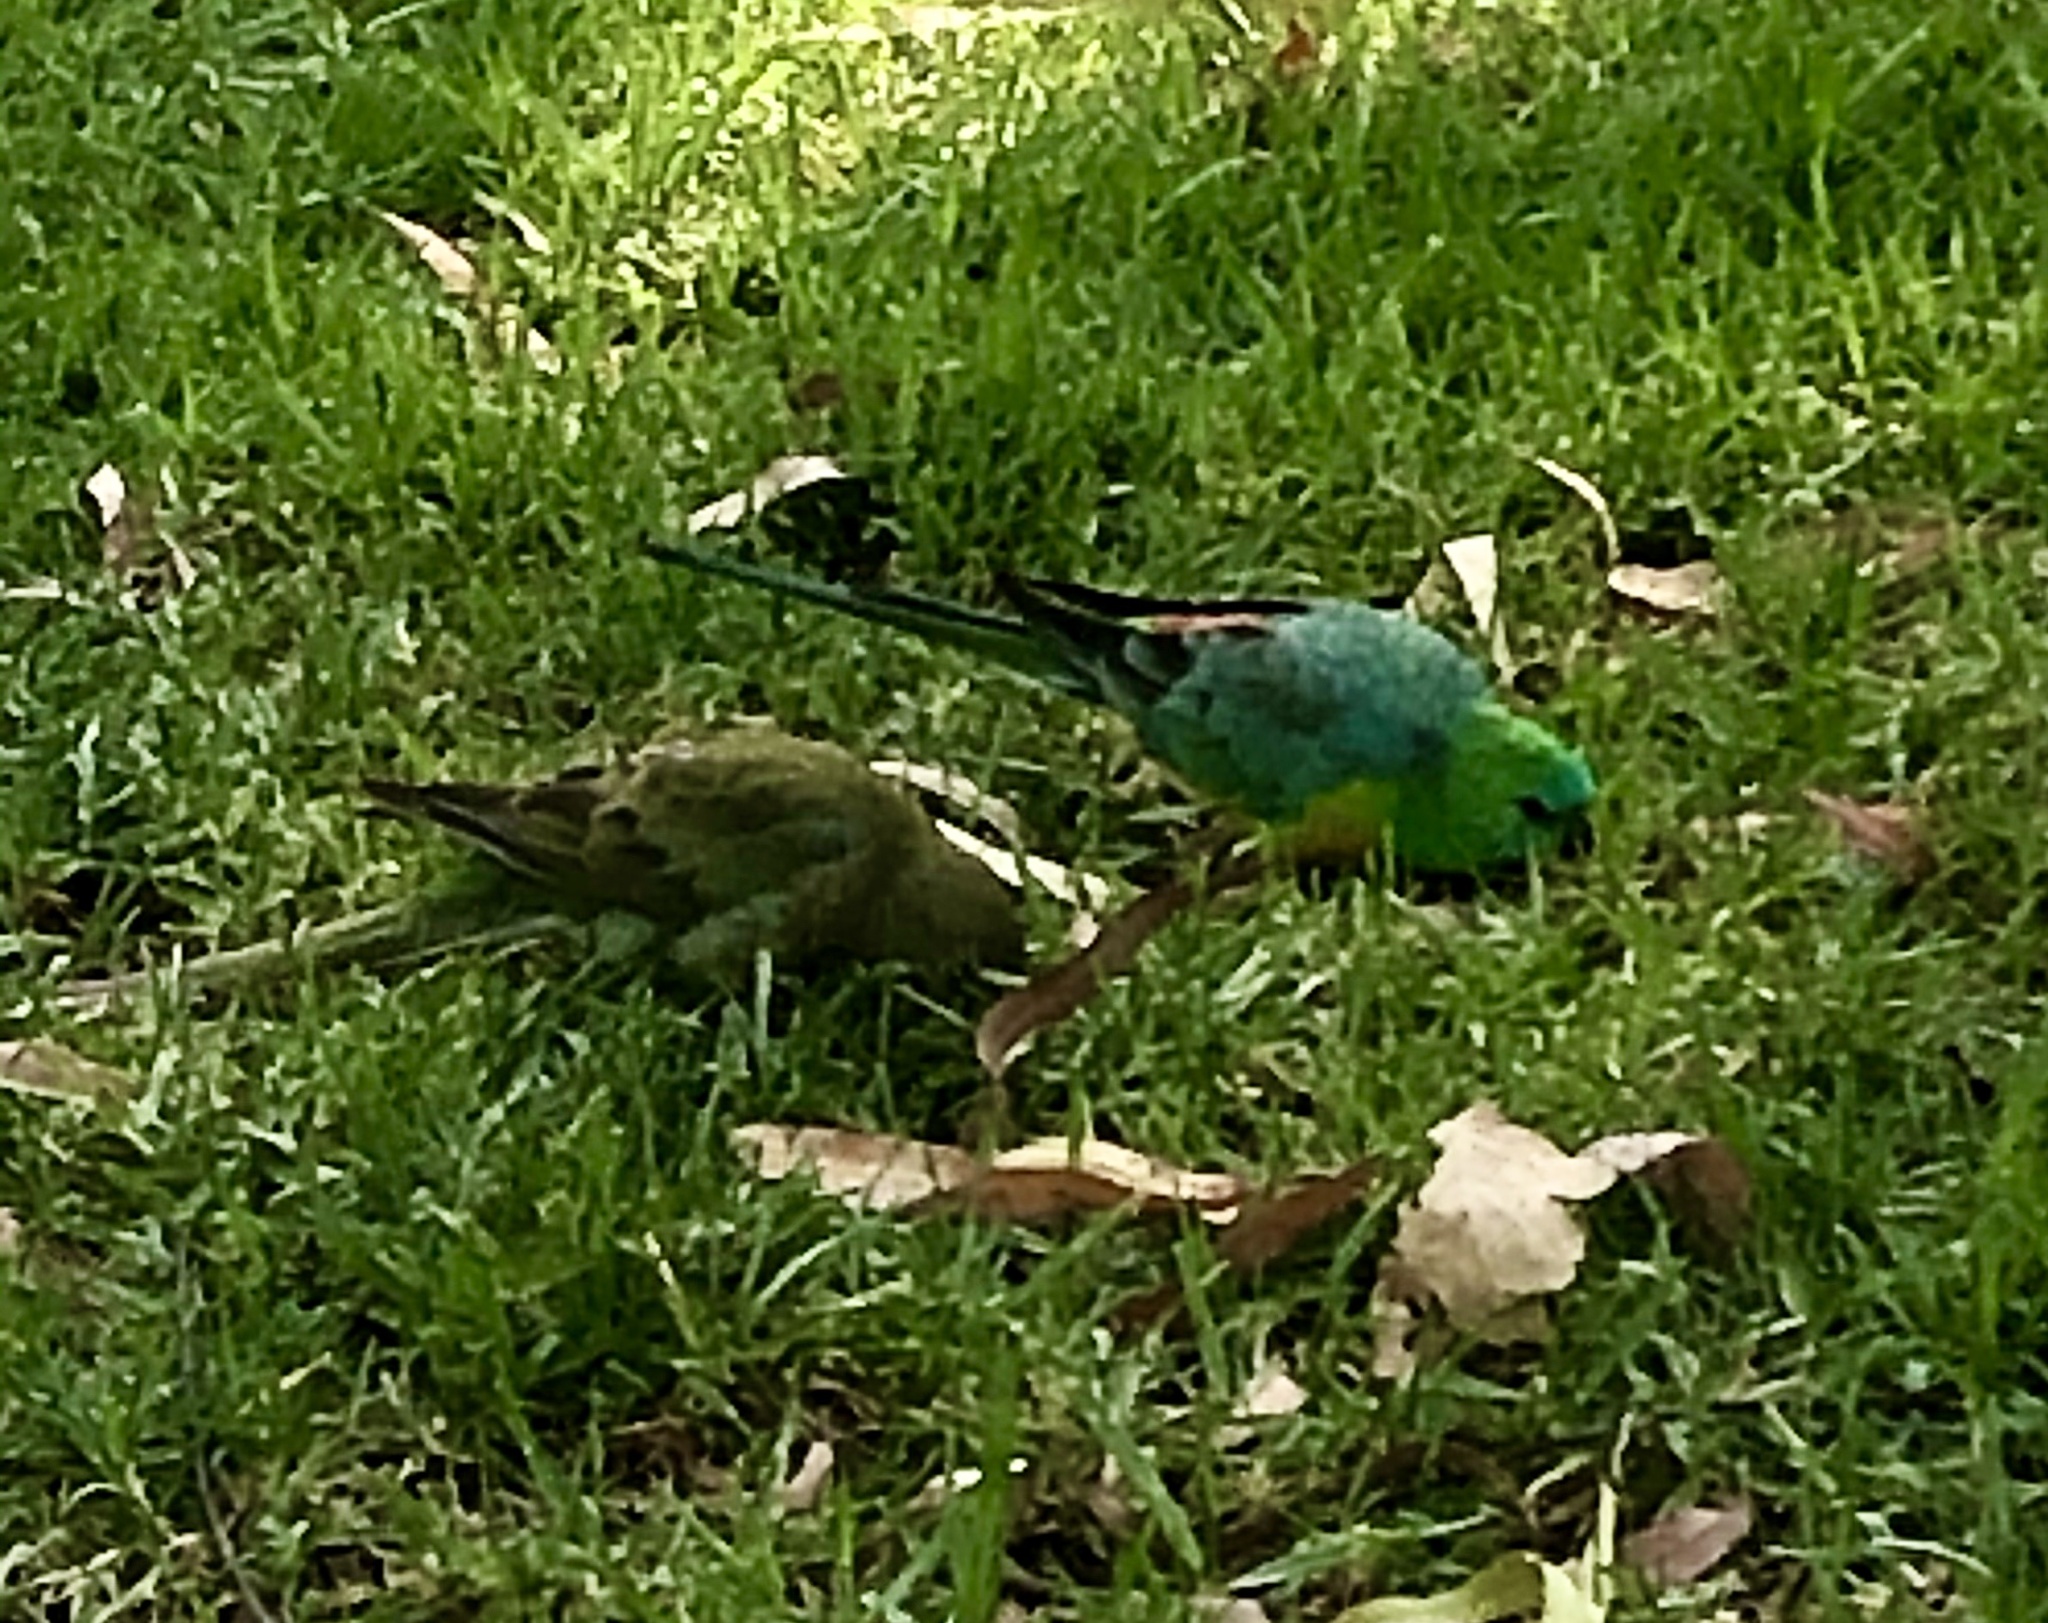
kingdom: Animalia
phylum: Chordata
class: Aves
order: Psittaciformes
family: Psittacidae
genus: Psephotus
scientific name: Psephotus haematonotus
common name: Red-rumped parrot
